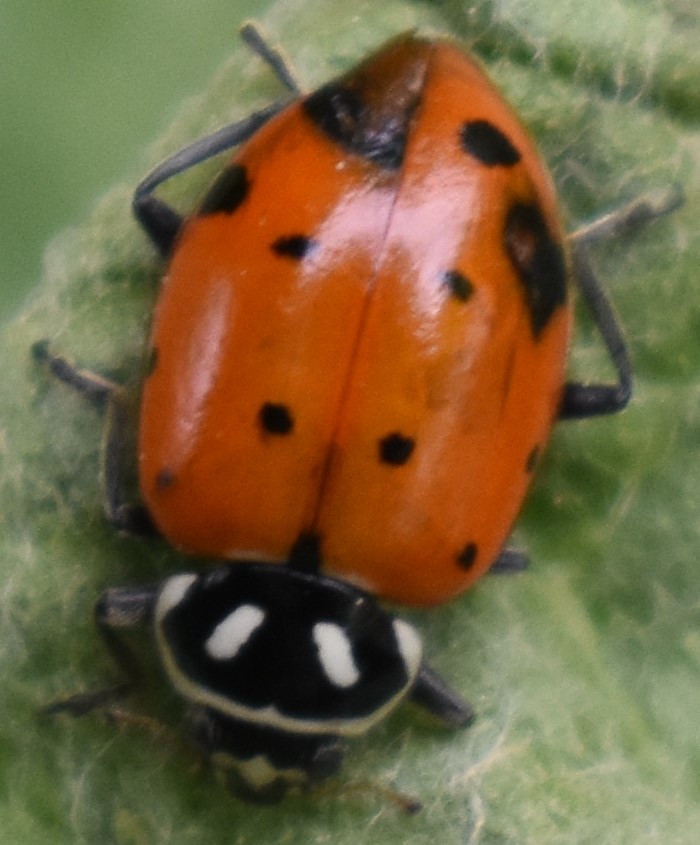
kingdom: Animalia
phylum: Arthropoda
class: Insecta
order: Coleoptera
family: Coccinellidae
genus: Hippodamia
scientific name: Hippodamia convergens
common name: Convergent lady beetle
